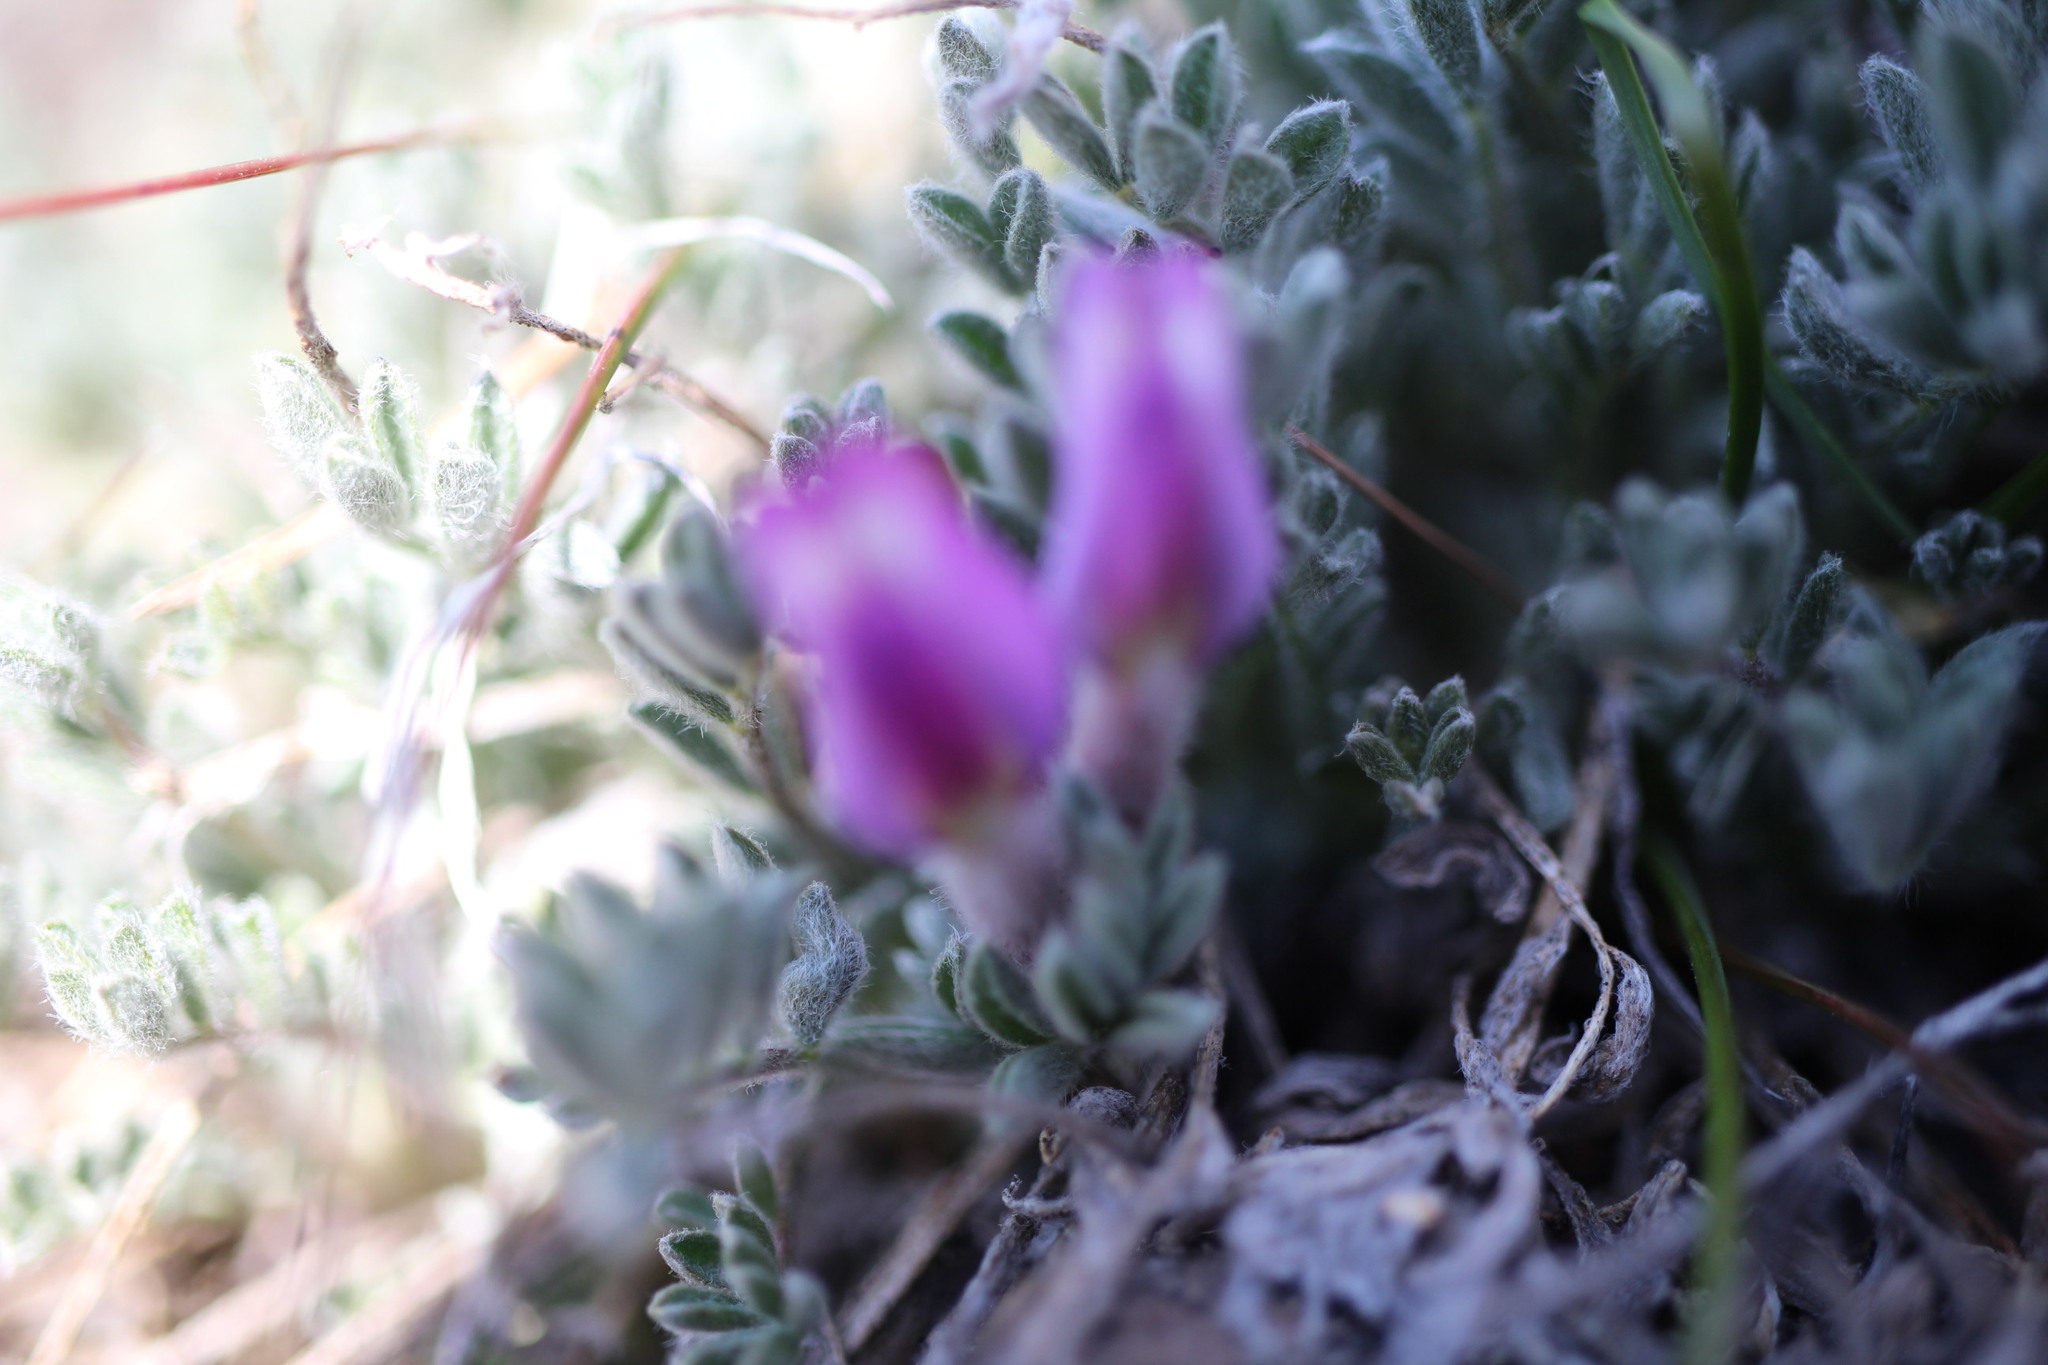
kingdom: Plantae
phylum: Tracheophyta
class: Magnoliopsida
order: Fabales
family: Fabaceae
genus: Astragalus
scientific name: Astragalus purshii
